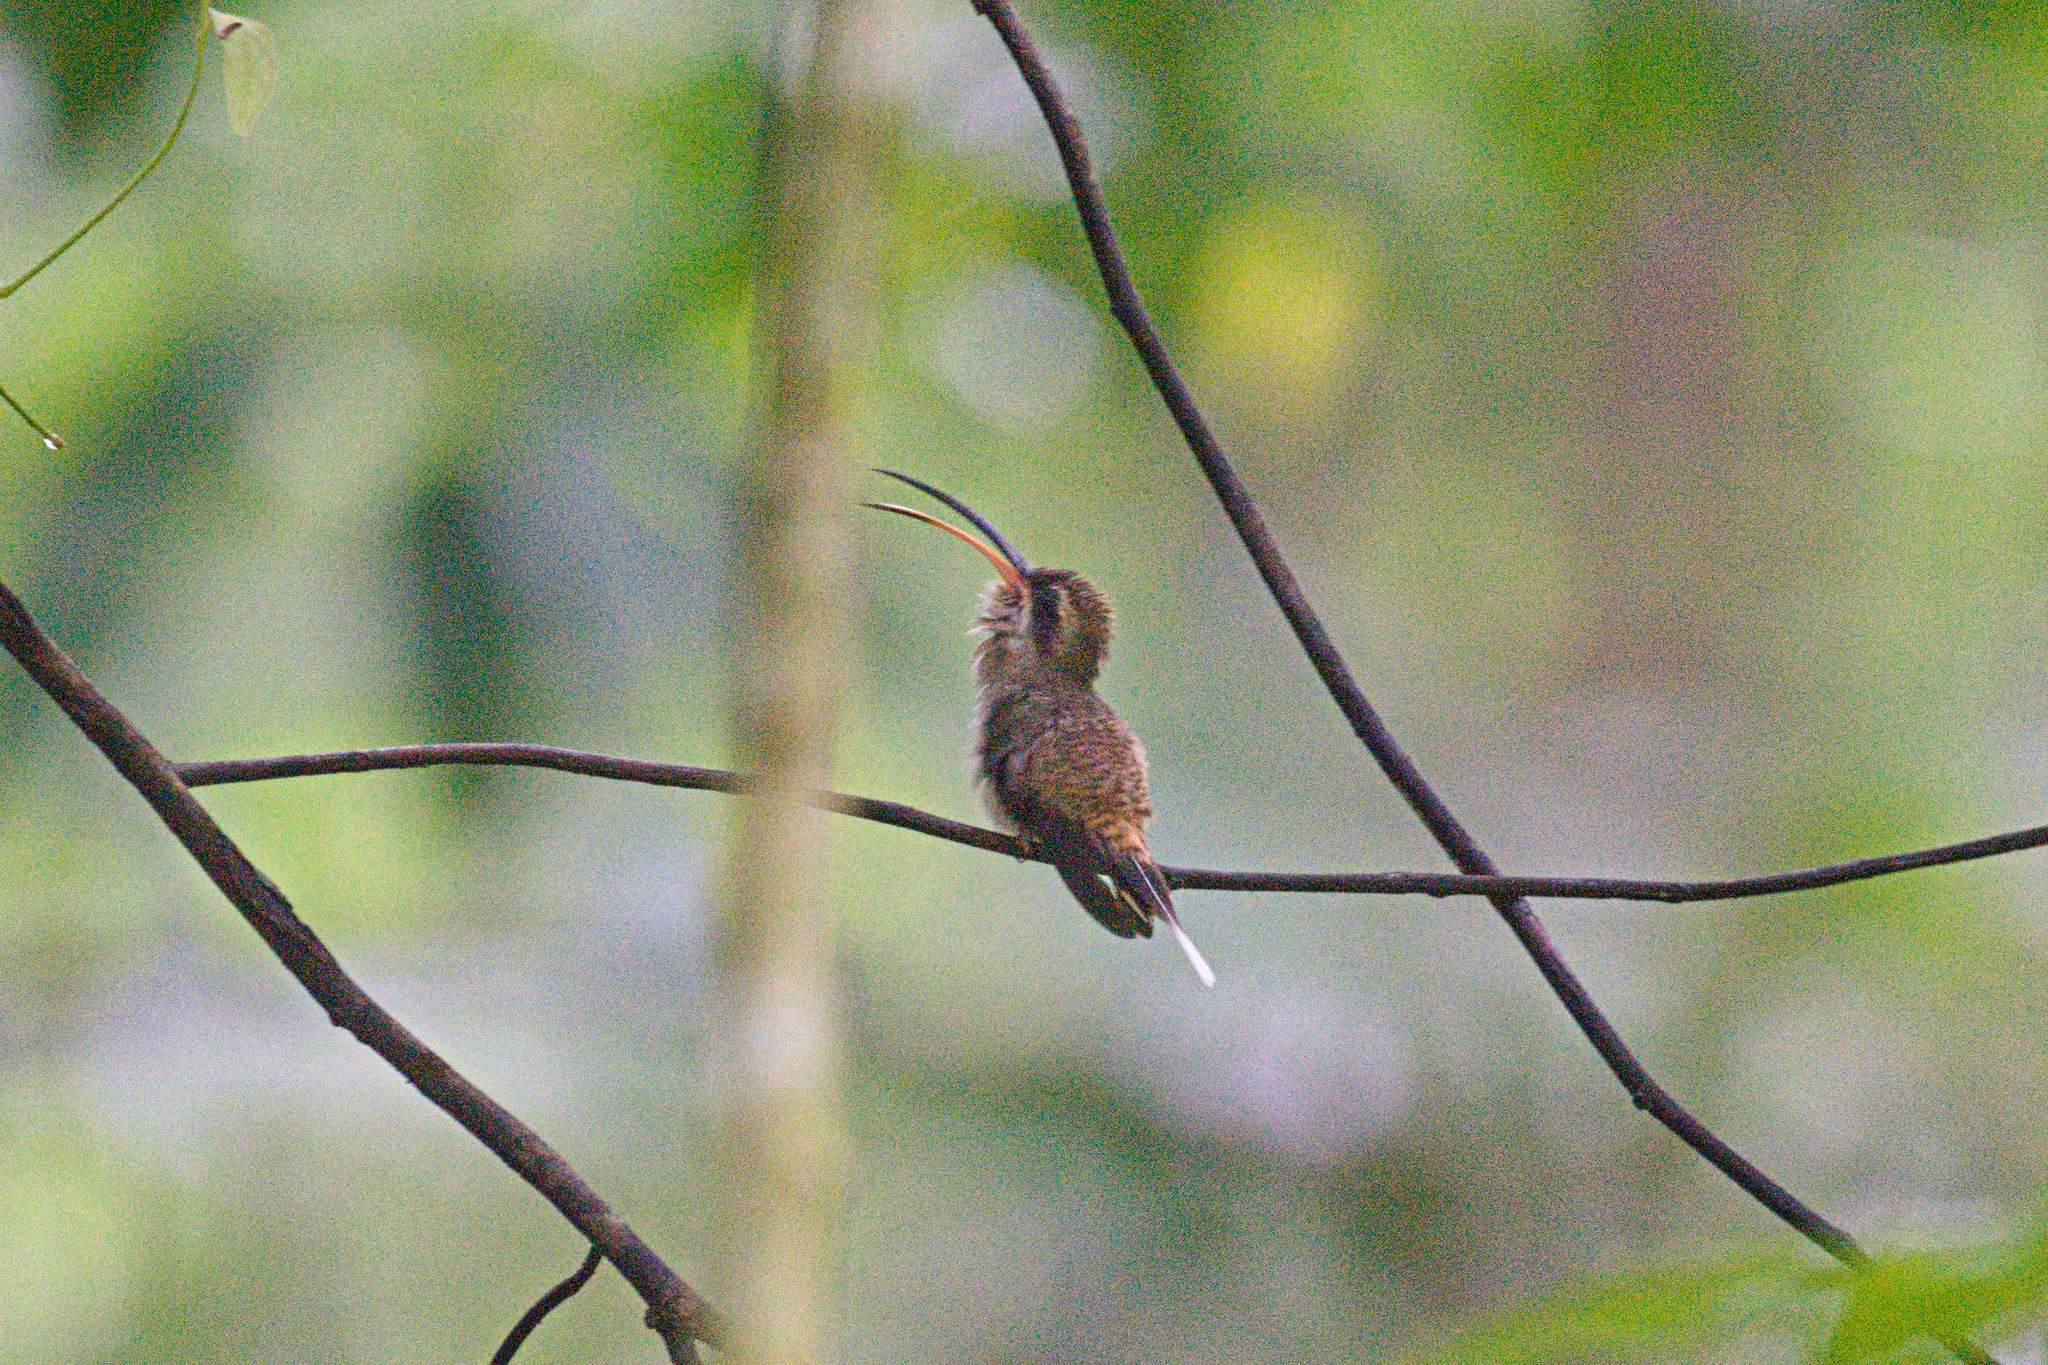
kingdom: Animalia
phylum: Chordata
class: Aves
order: Apodiformes
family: Trochilidae
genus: Phaethornis
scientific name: Phaethornis longirostris
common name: Long-billed hermit
